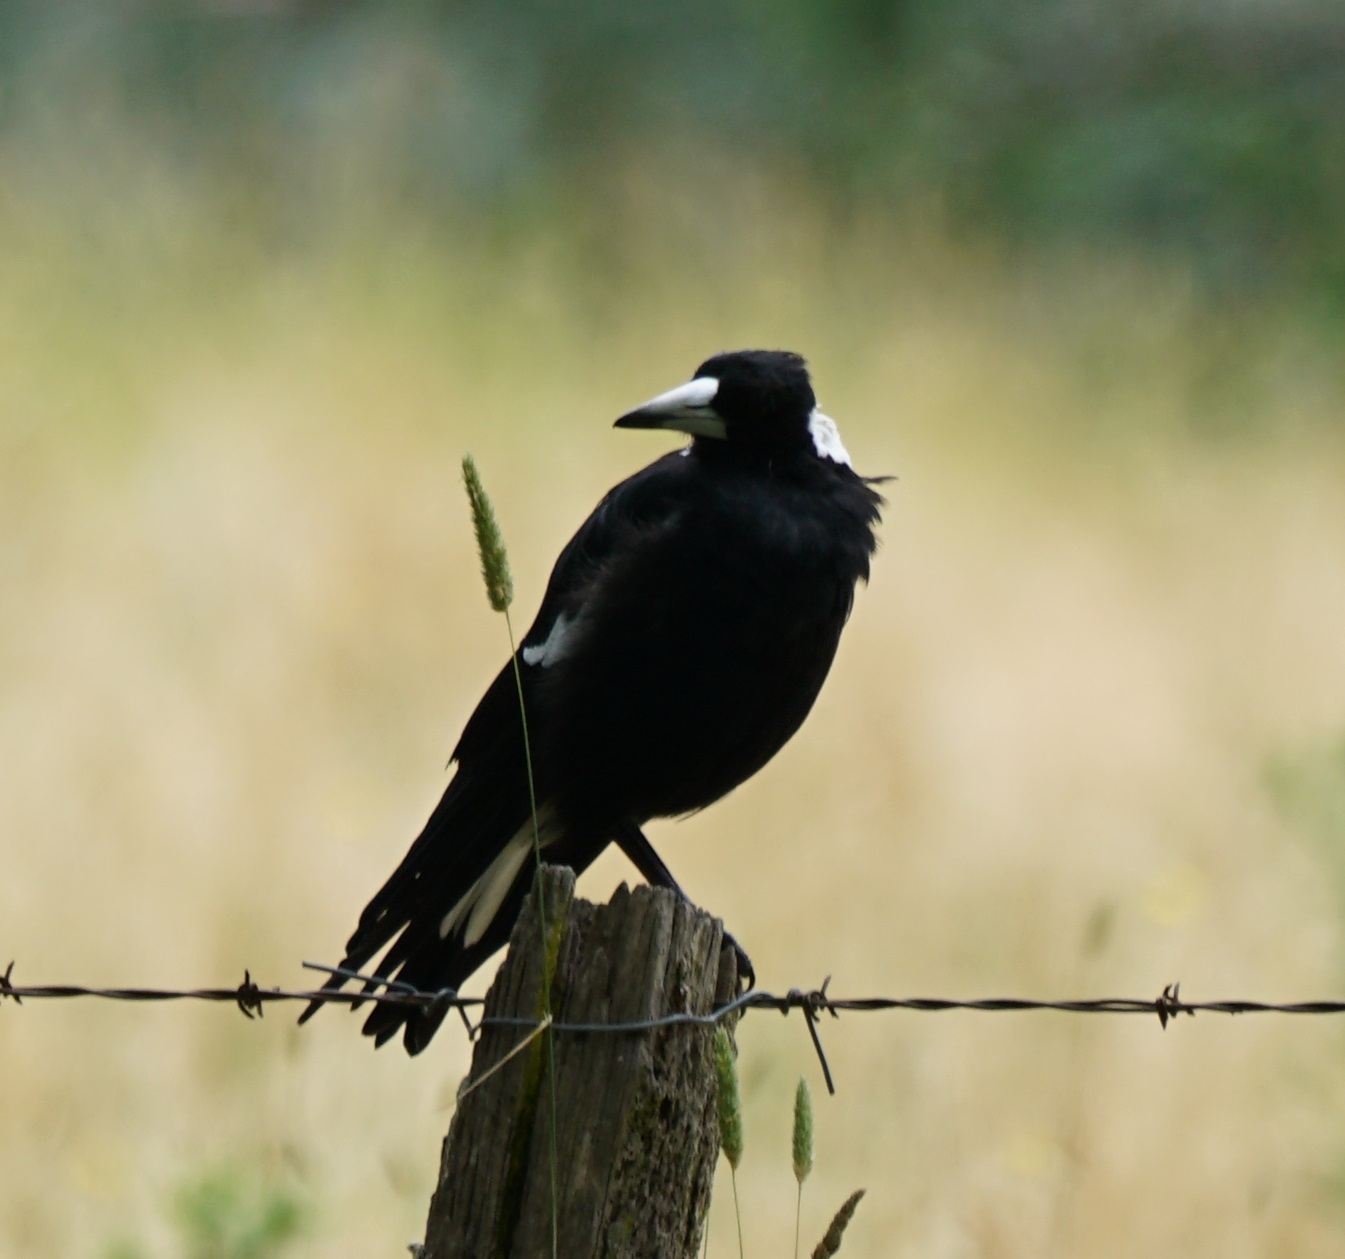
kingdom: Animalia
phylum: Chordata
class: Aves
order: Passeriformes
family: Cracticidae
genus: Gymnorhina
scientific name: Gymnorhina tibicen
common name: Australian magpie
